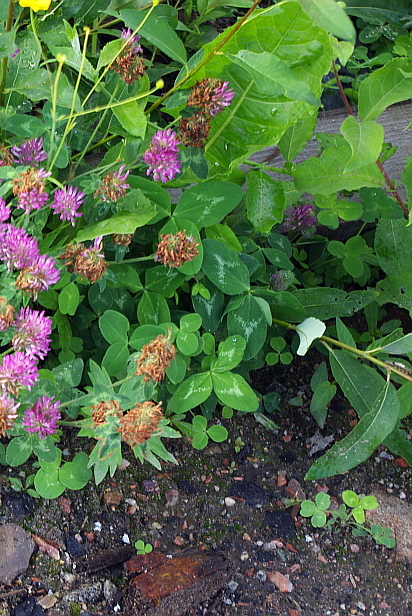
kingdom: Plantae
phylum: Tracheophyta
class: Magnoliopsida
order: Asterales
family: Asteraceae
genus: Taraxacum
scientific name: Taraxacum officinale
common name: Common dandelion
